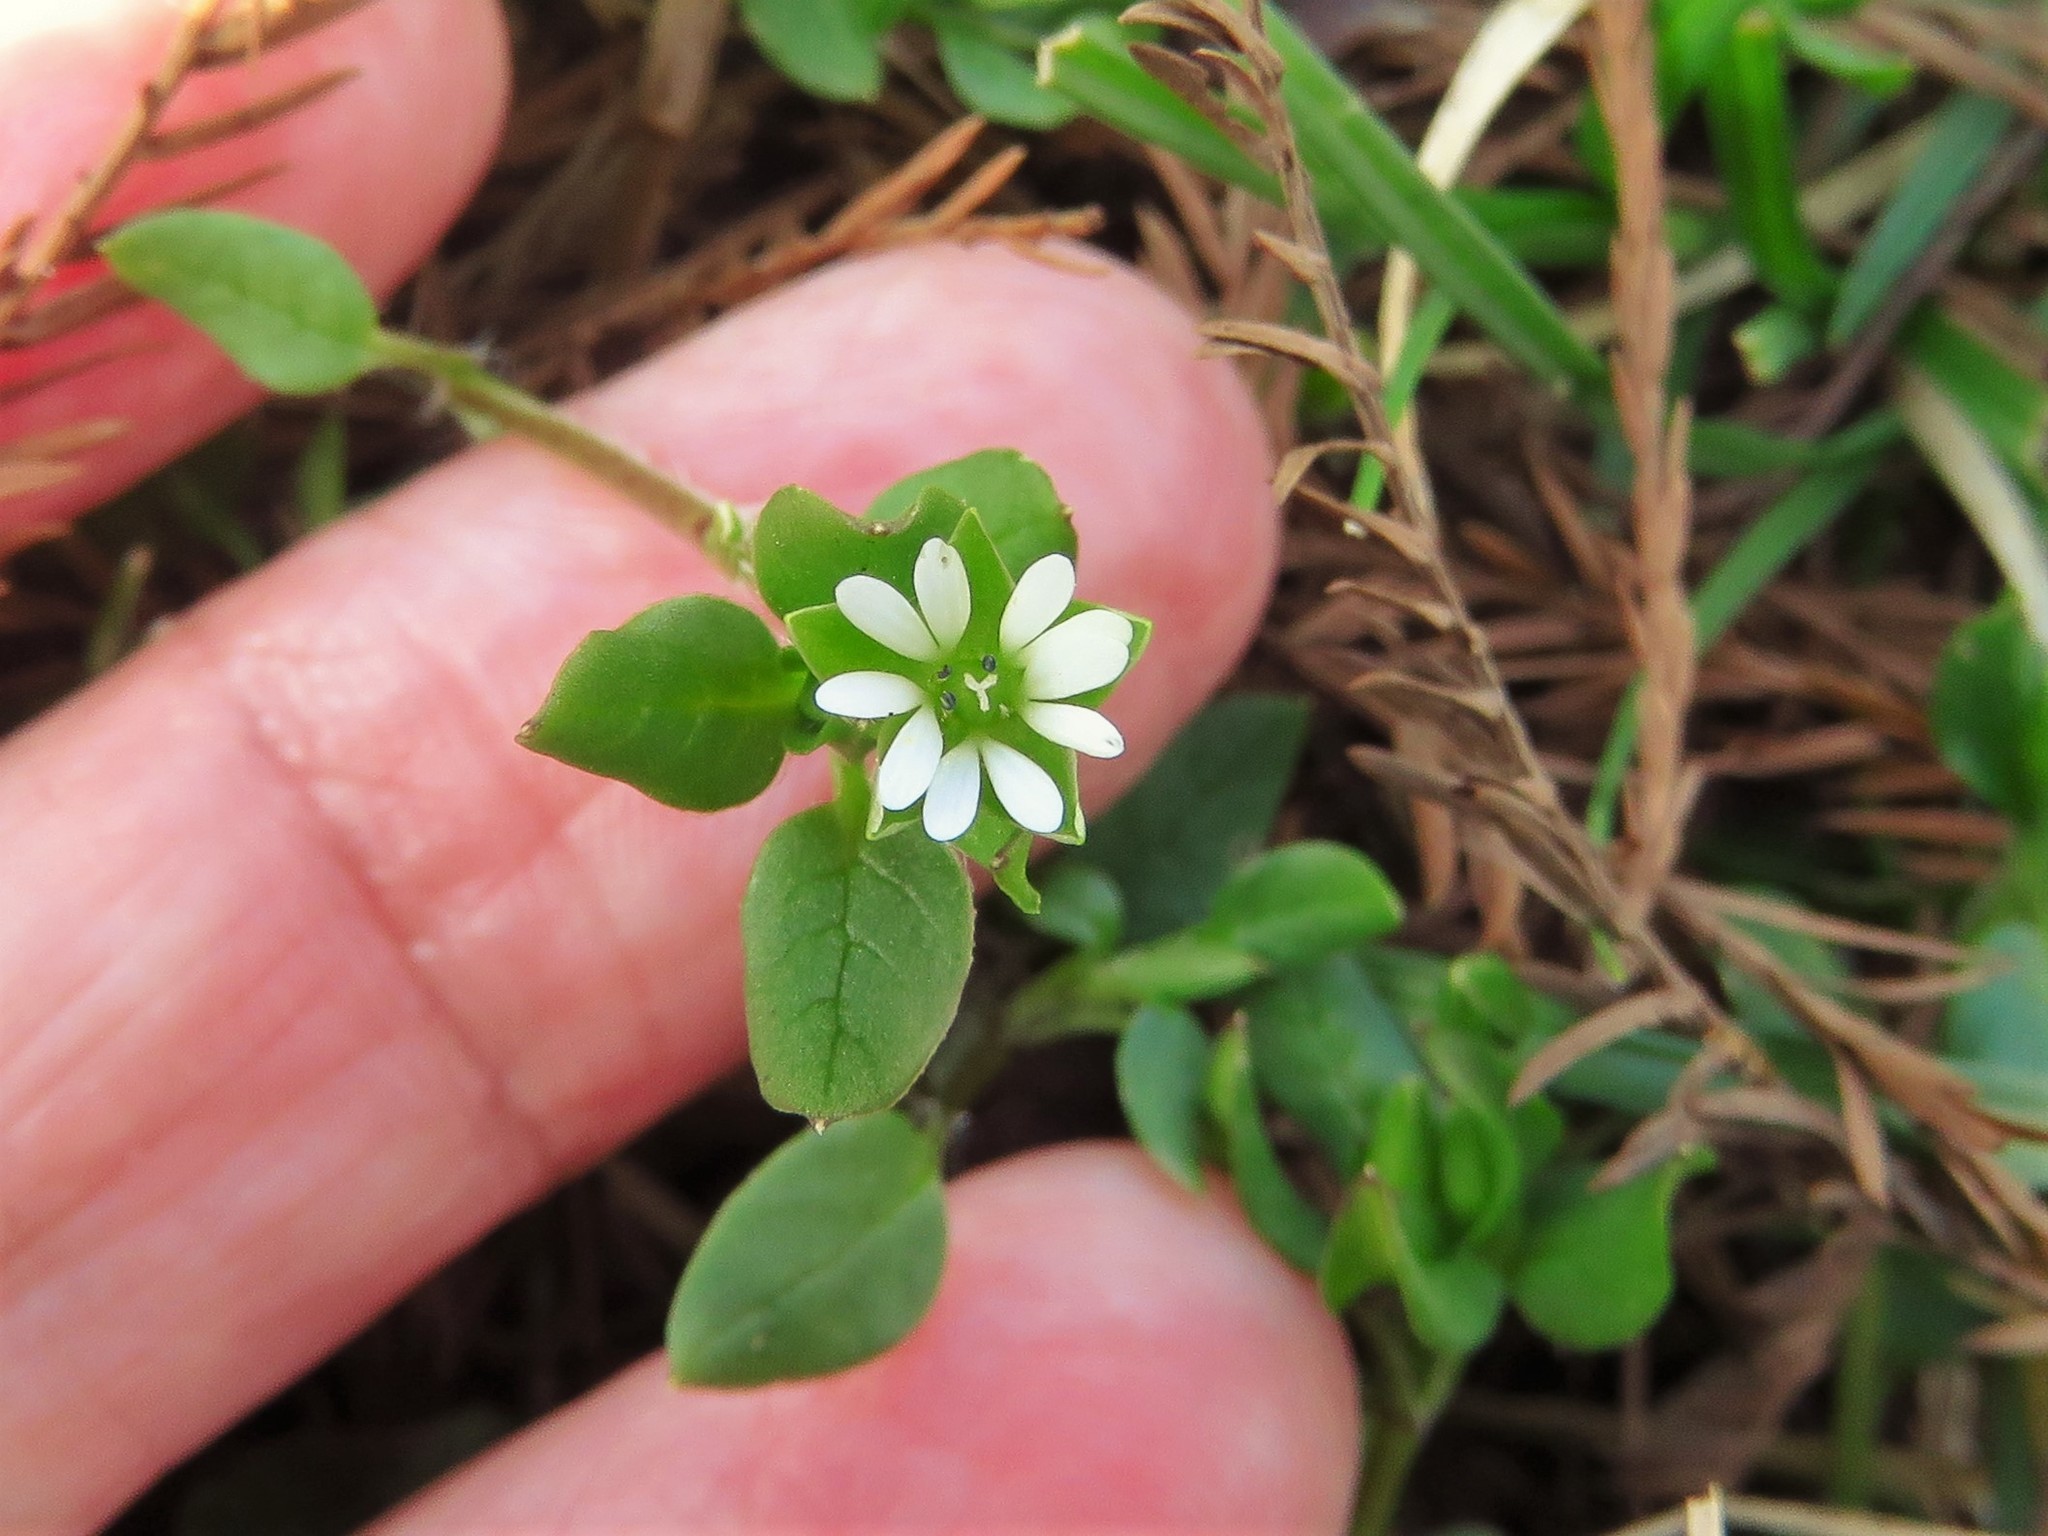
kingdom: Plantae
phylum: Tracheophyta
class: Magnoliopsida
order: Caryophyllales
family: Caryophyllaceae
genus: Stellaria
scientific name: Stellaria media
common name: Common chickweed
